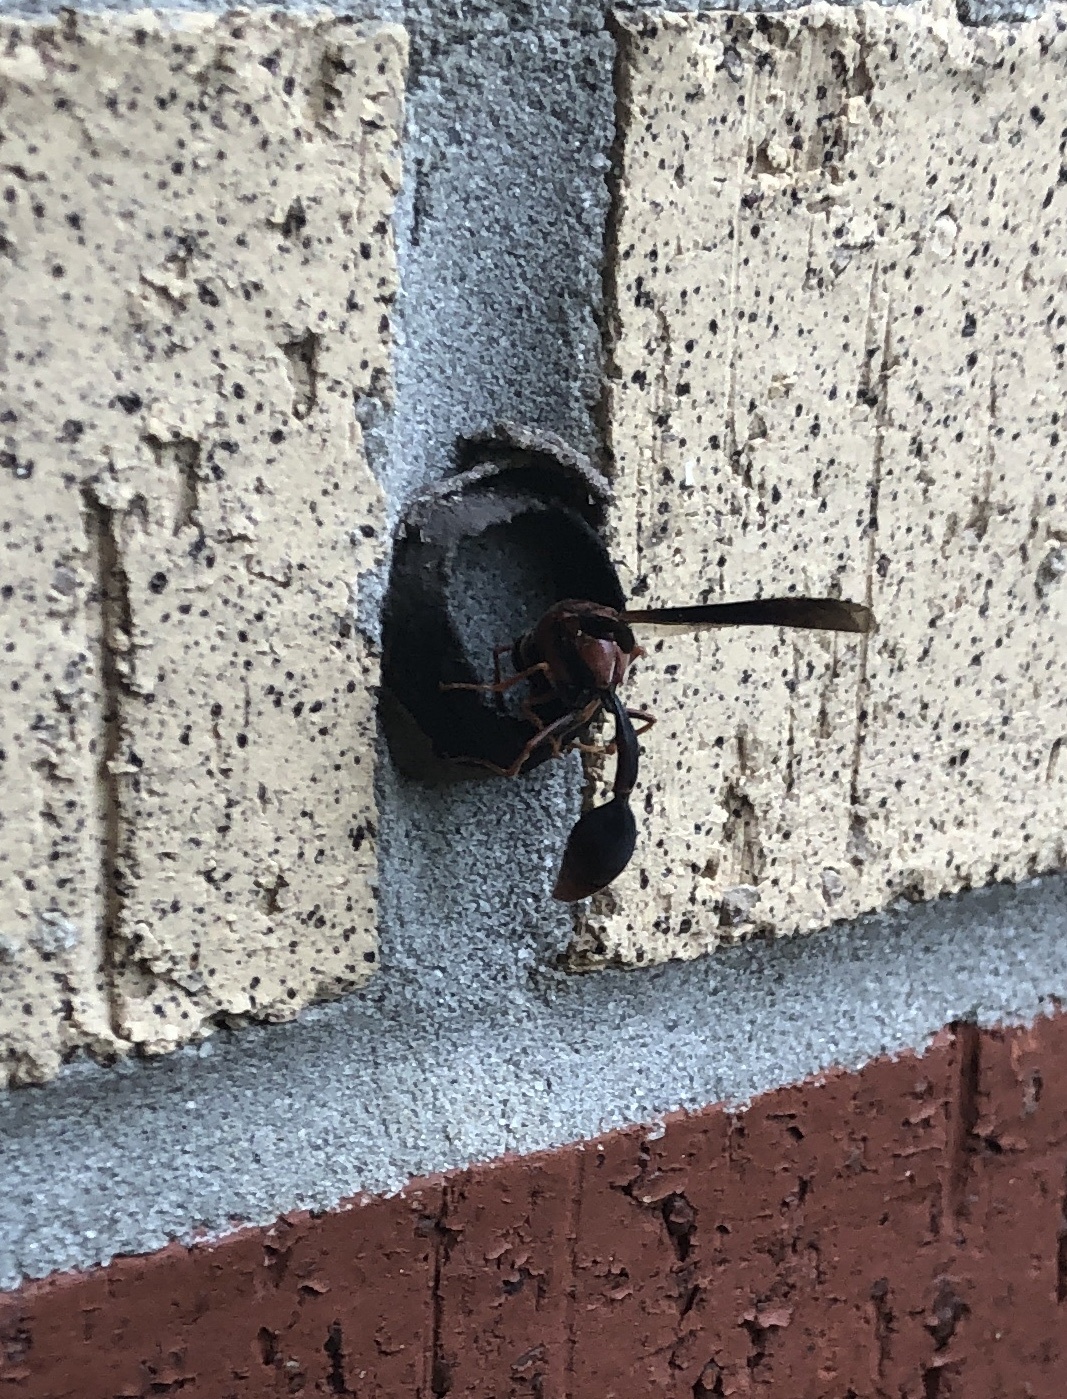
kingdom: Animalia
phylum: Arthropoda
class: Insecta
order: Hymenoptera
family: Eumenidae
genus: Zeta
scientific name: Zeta argillaceum
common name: Potter wasp
